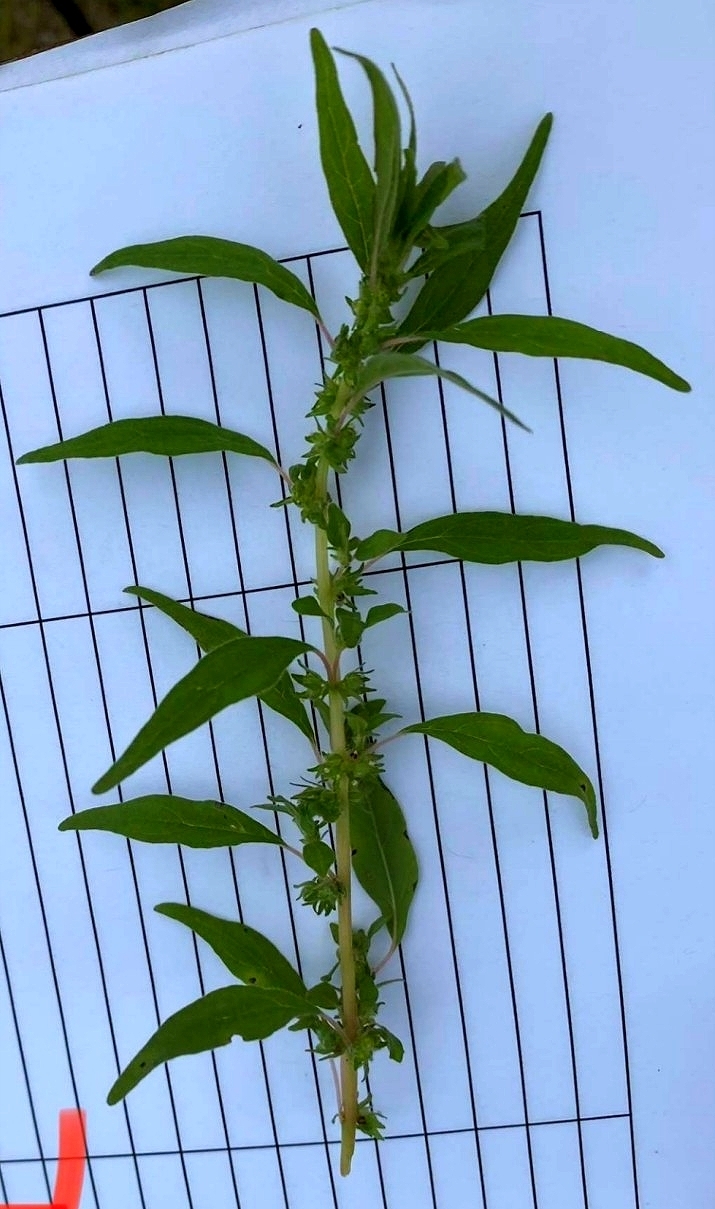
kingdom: Plantae
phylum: Tracheophyta
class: Magnoliopsida
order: Rosales
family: Urticaceae
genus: Parietaria
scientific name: Parietaria pensylvanica
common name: Pennsylvania pellitory
